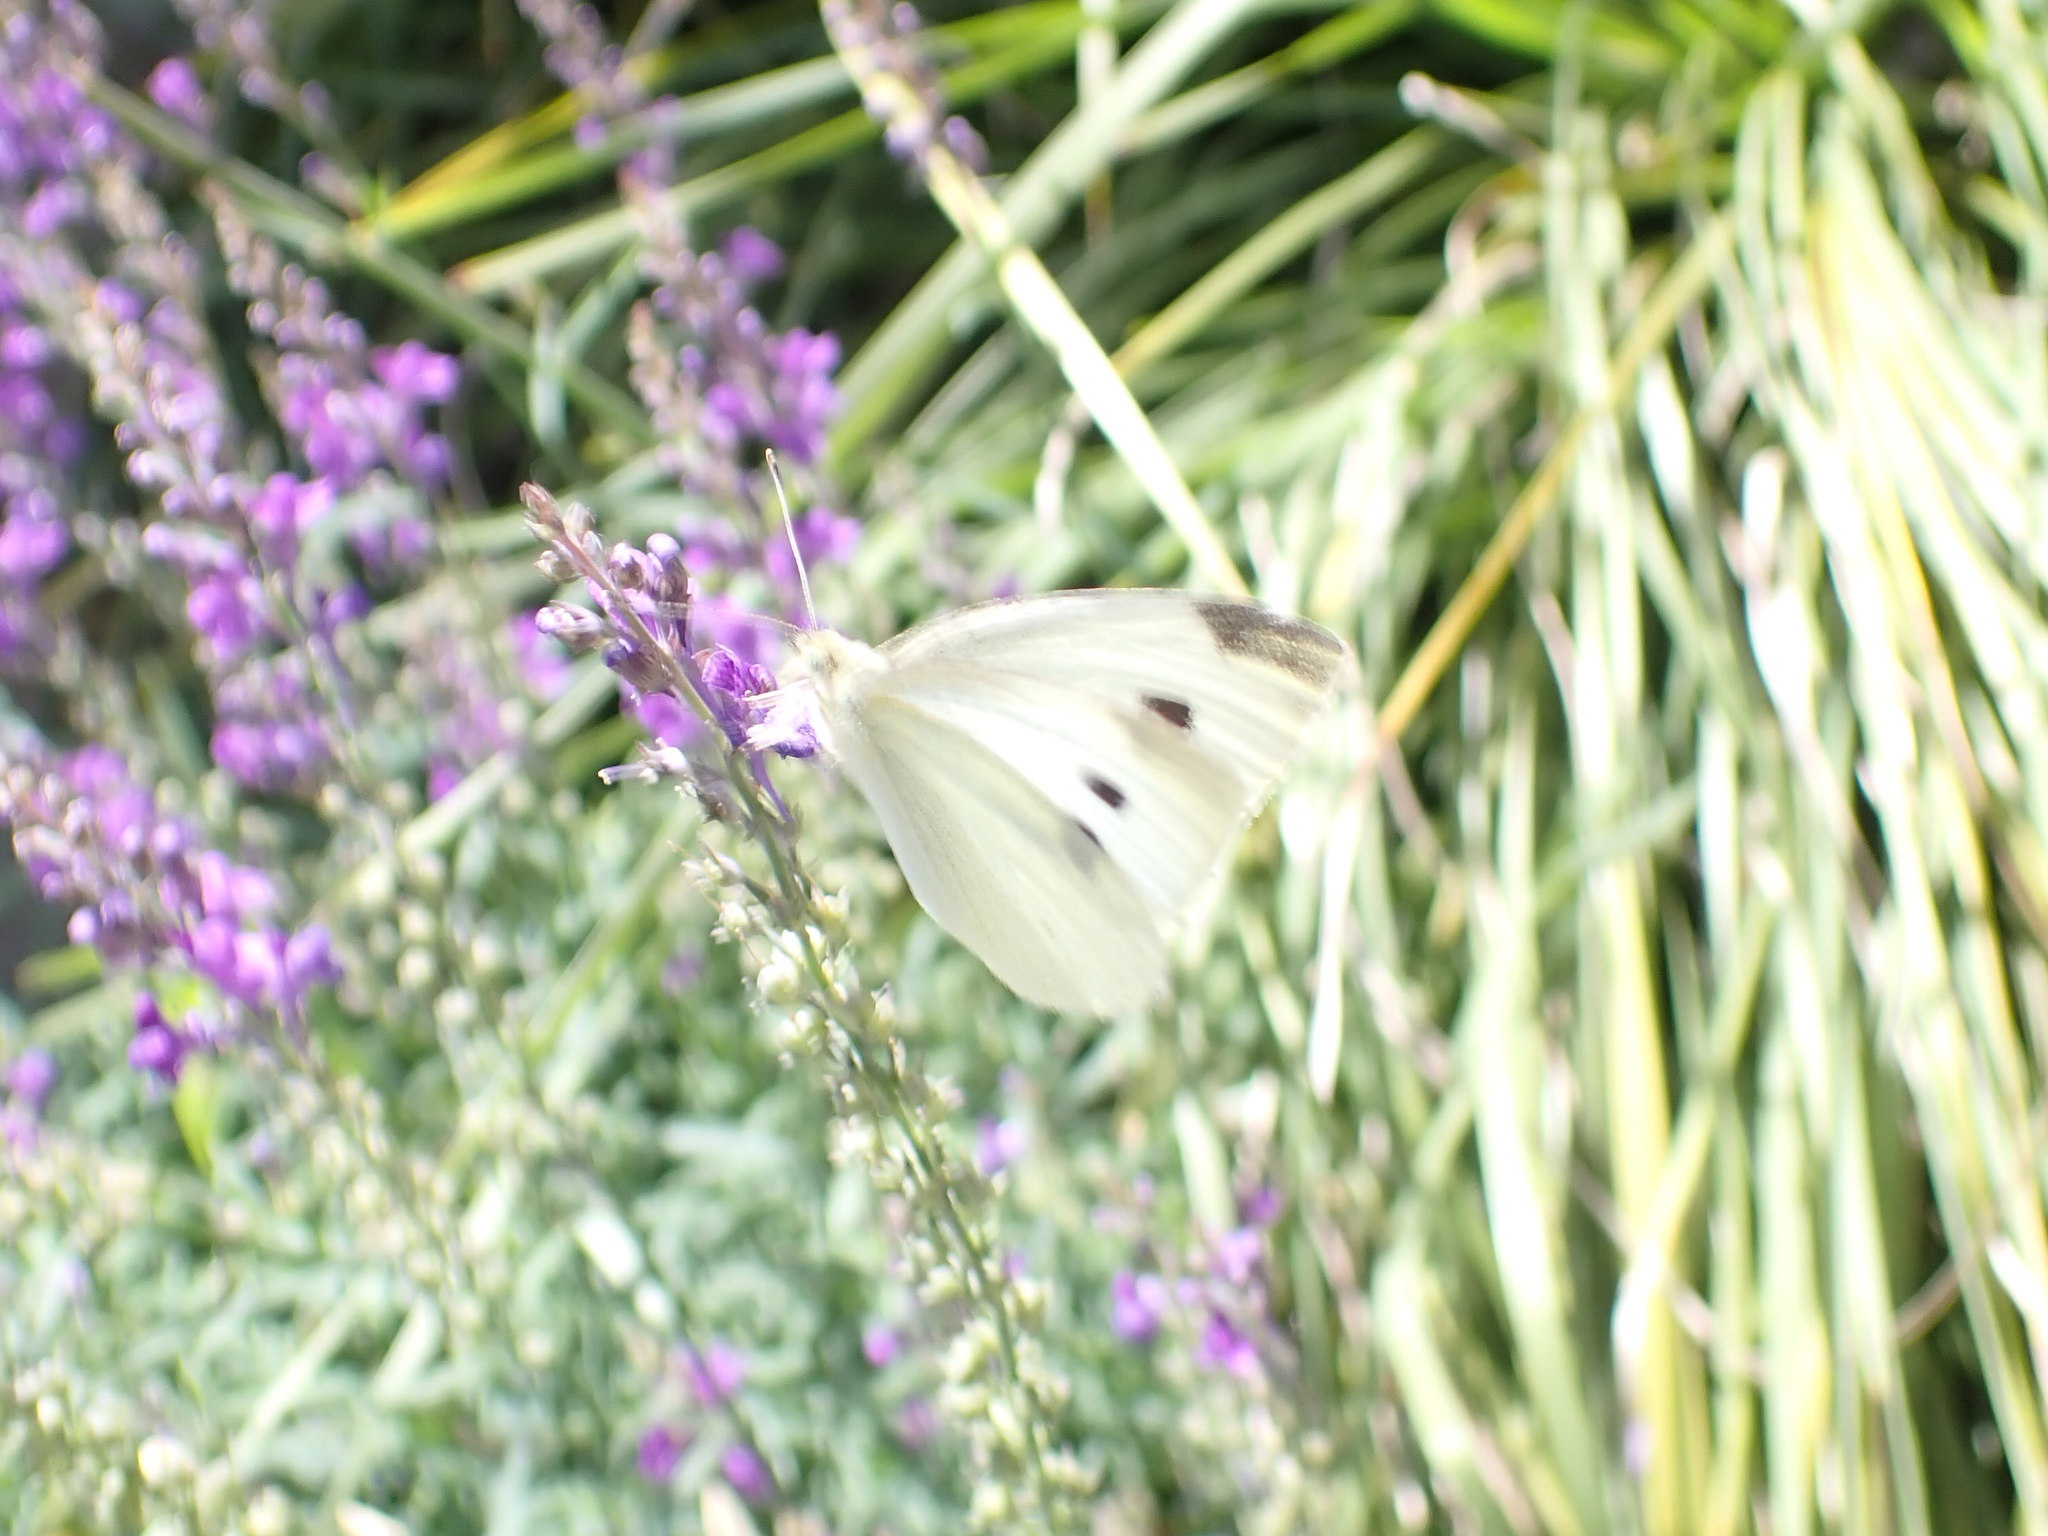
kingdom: Animalia
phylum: Arthropoda
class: Insecta
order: Lepidoptera
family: Pieridae
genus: Pieris
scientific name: Pieris rapae
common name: Small white
